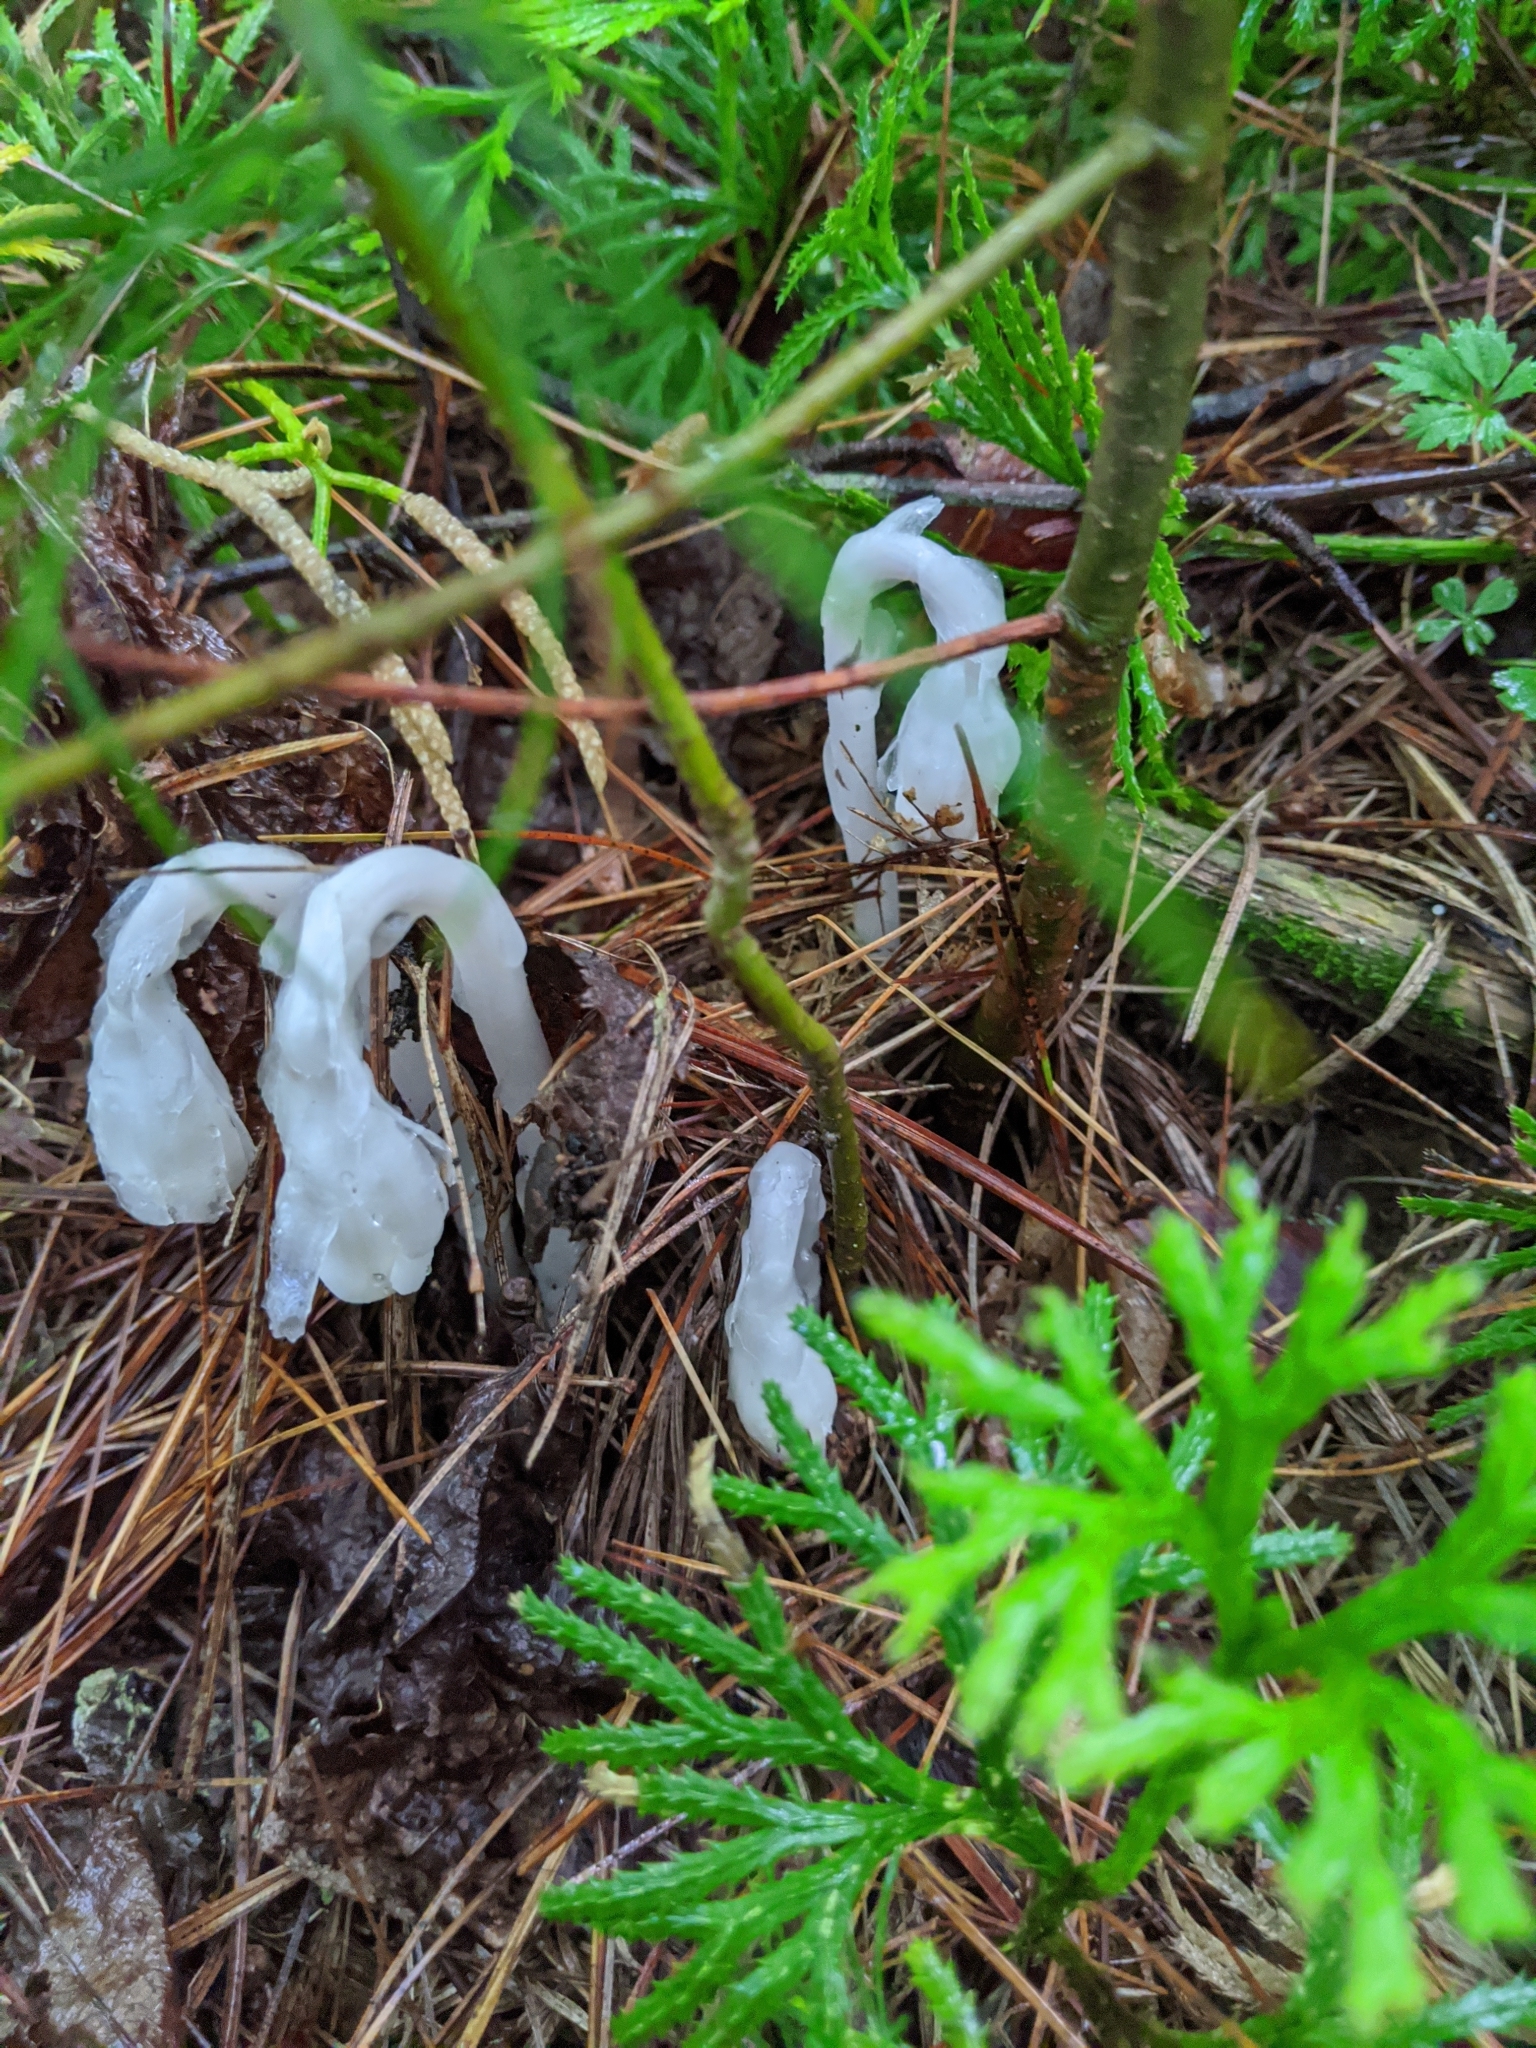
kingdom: Plantae
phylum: Tracheophyta
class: Magnoliopsida
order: Ericales
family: Ericaceae
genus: Monotropa
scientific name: Monotropa uniflora
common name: Convulsion root
